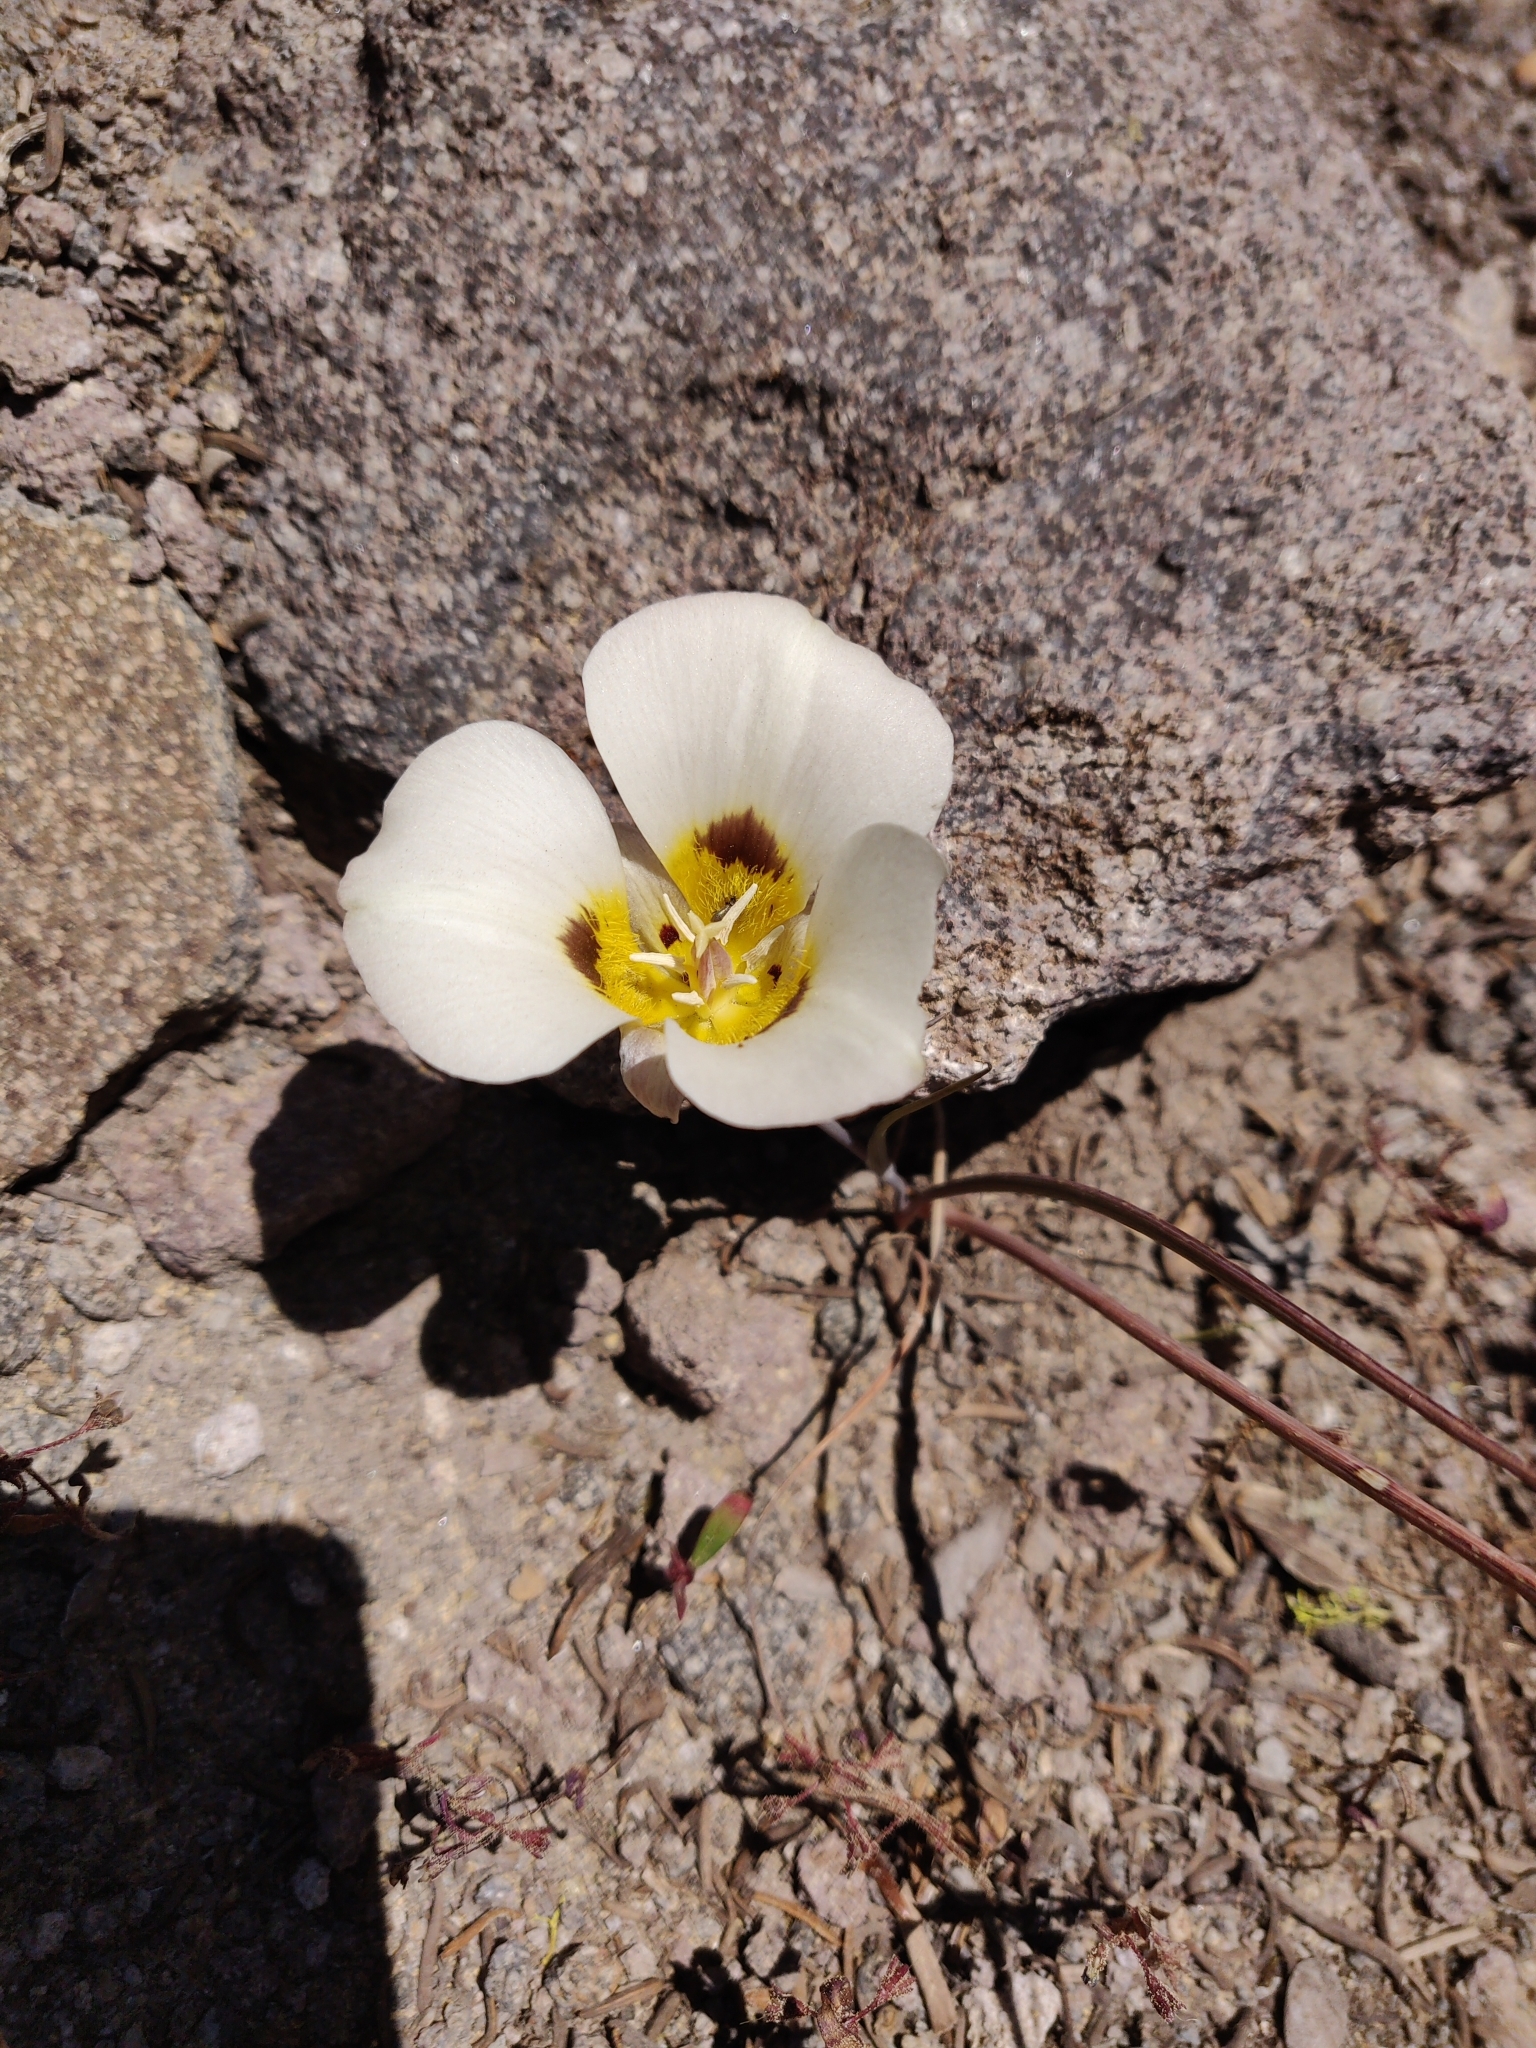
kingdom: Plantae
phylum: Tracheophyta
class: Liliopsida
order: Liliales
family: Liliaceae
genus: Calochortus
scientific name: Calochortus leichtlinii
